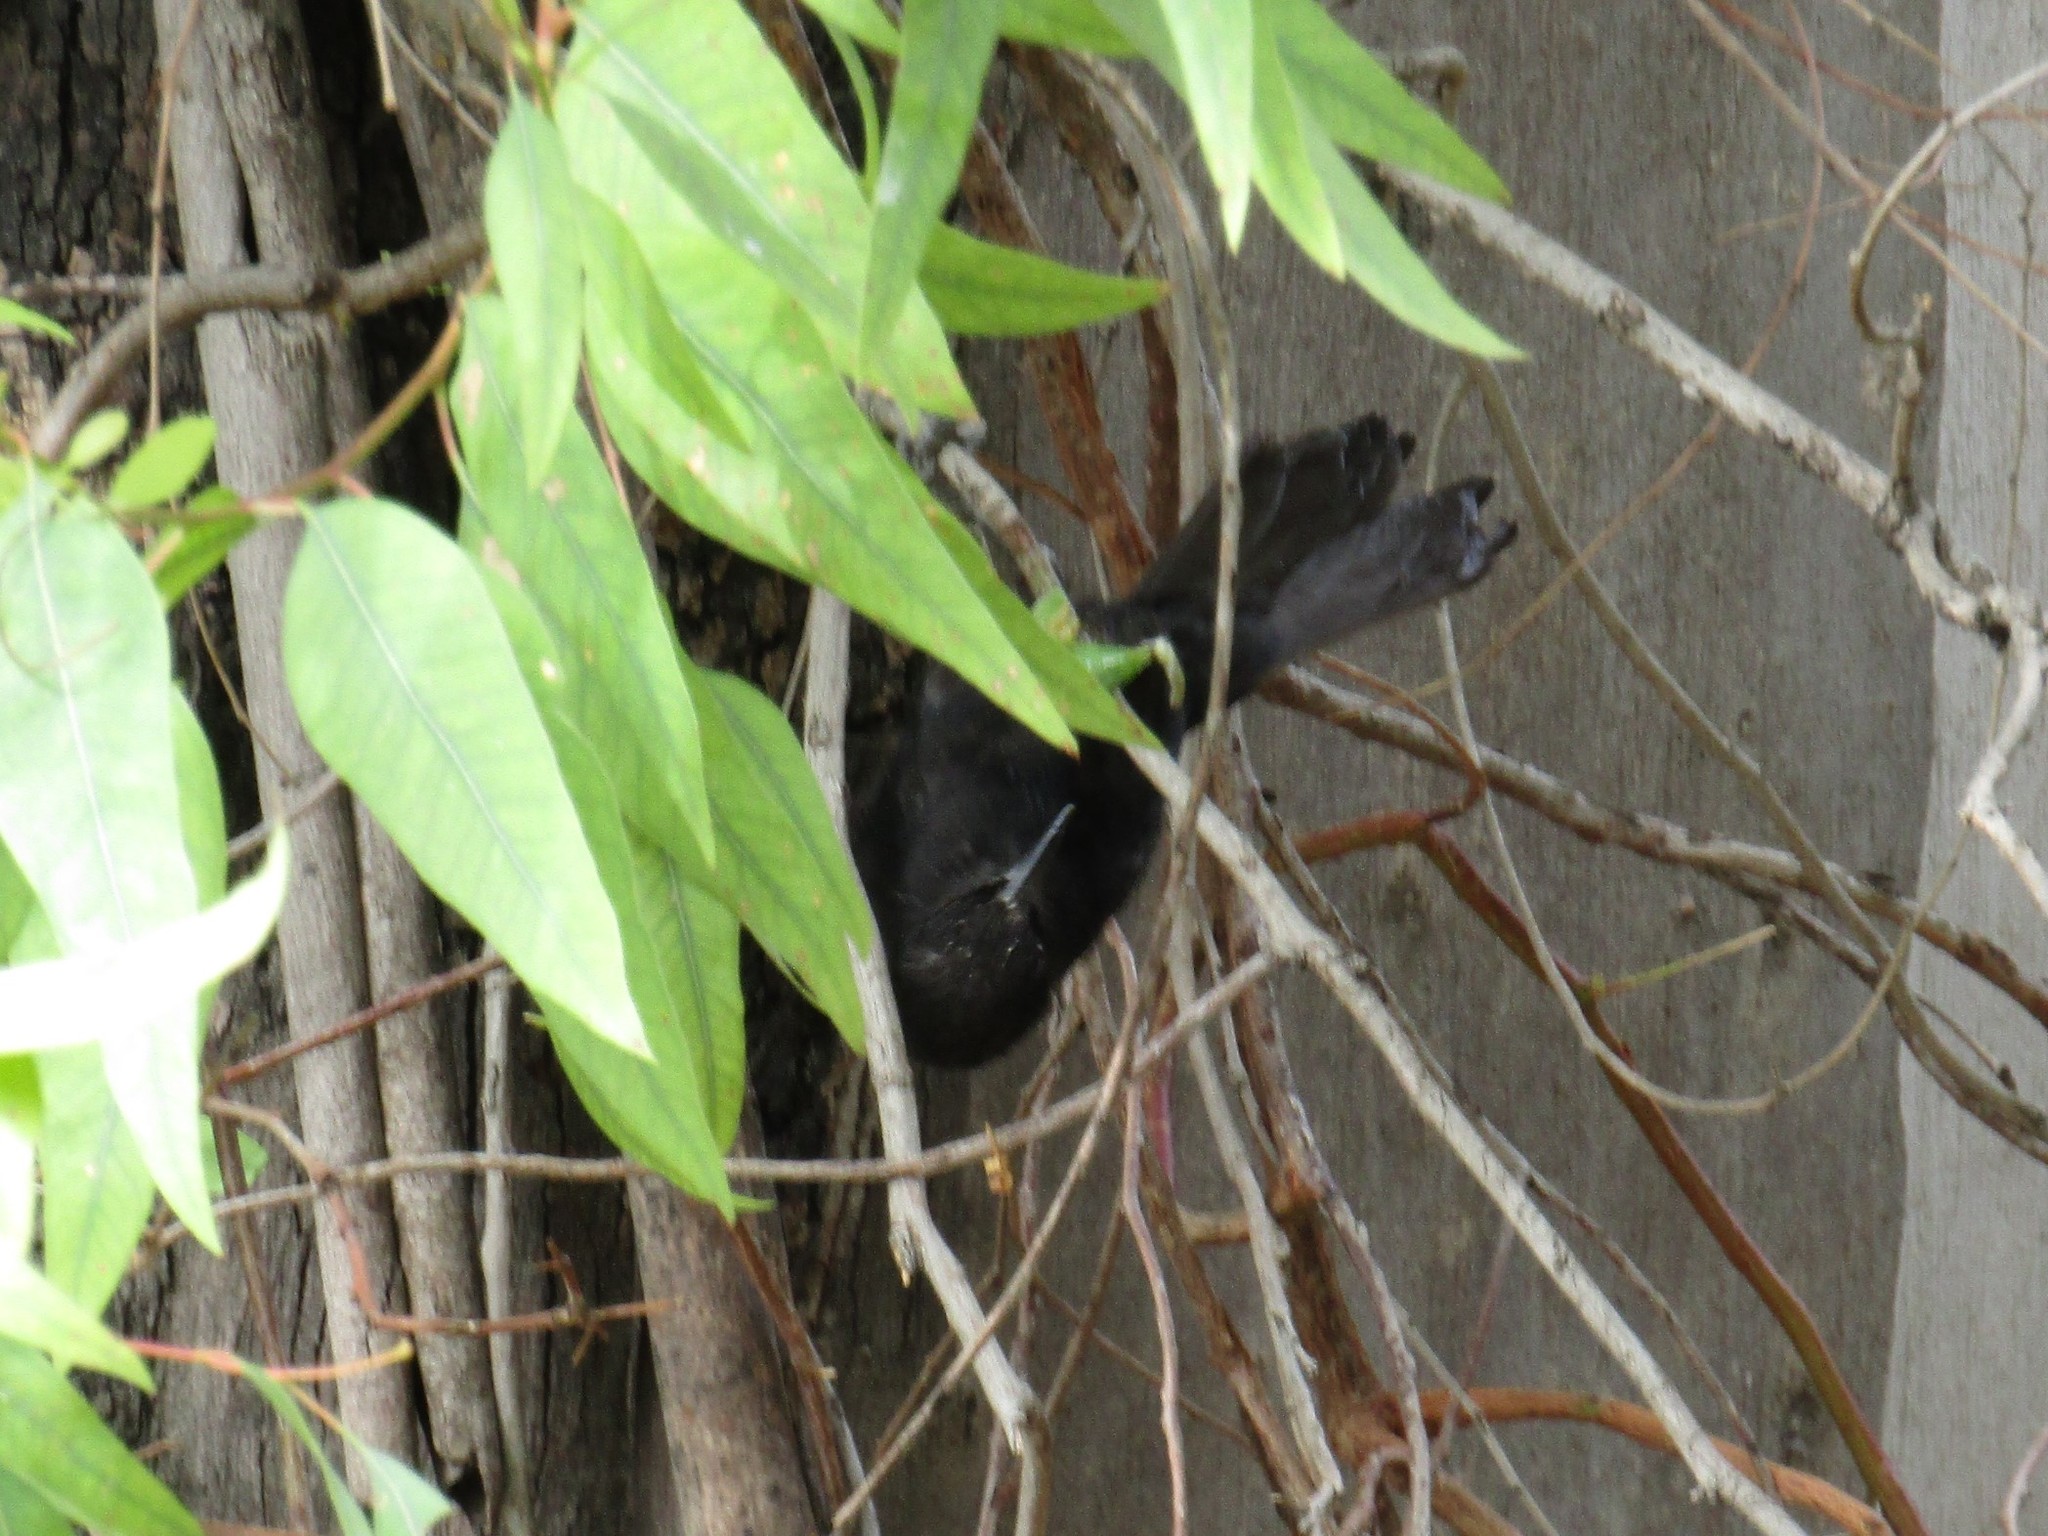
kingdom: Animalia
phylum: Chordata
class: Aves
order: Passeriformes
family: Icteridae
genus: Icterus
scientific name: Icterus cayanensis
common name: Epaulet oriole
